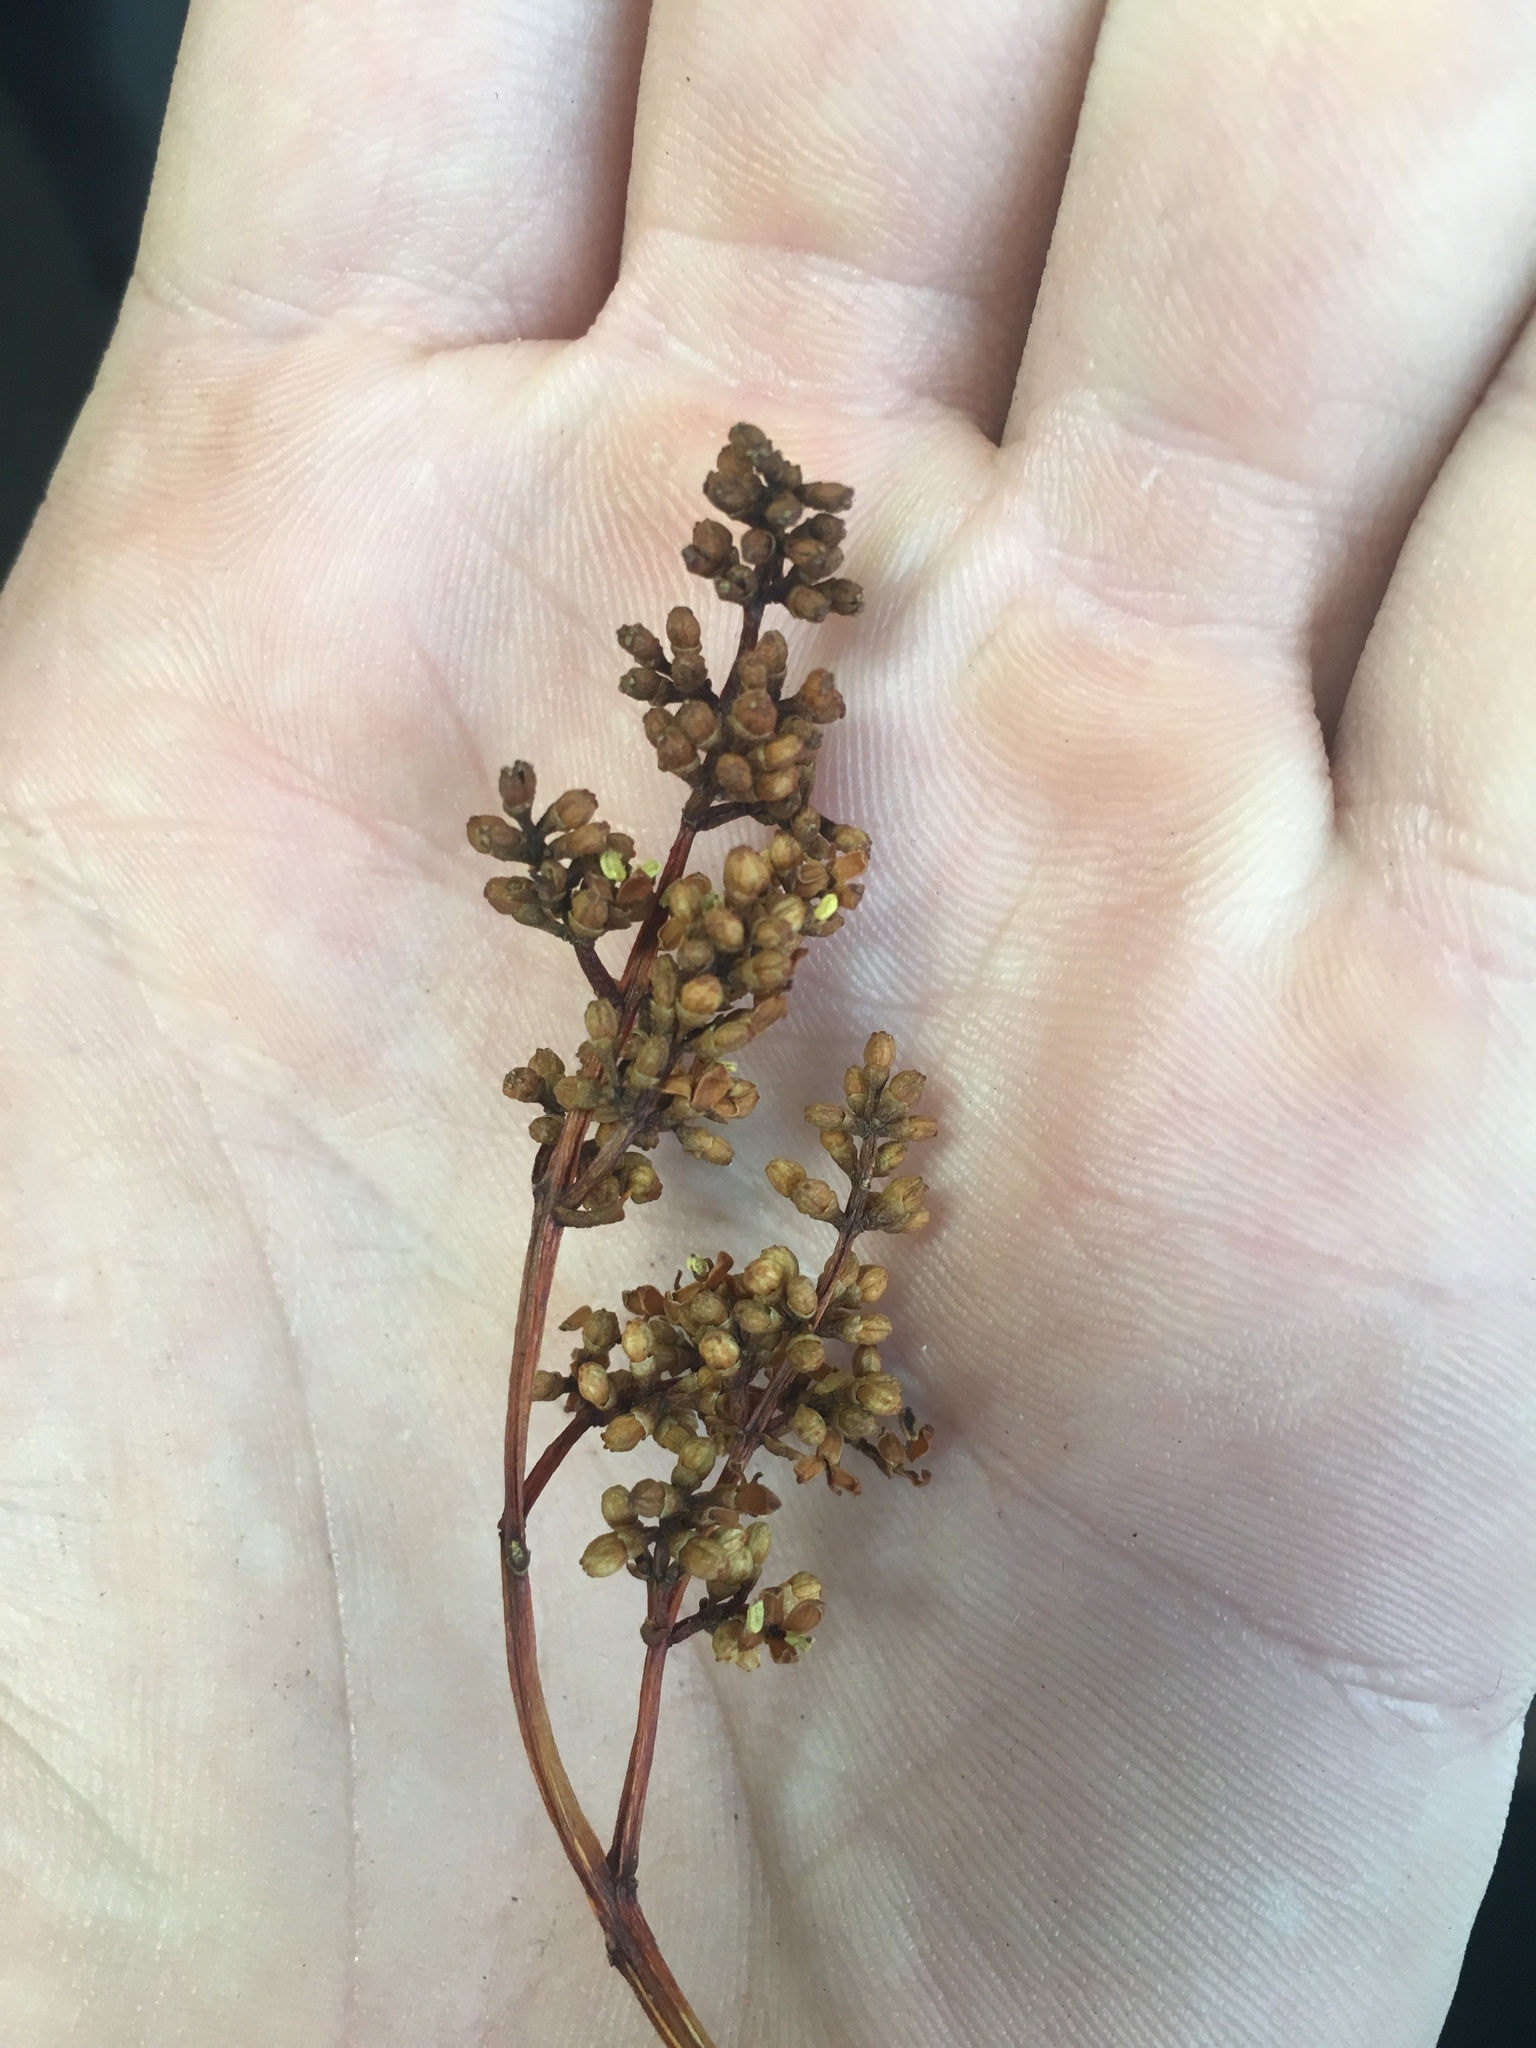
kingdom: Plantae
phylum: Tracheophyta
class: Magnoliopsida
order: Lamiales
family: Oleaceae
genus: Ligustrum
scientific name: Ligustrum lucidum
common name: Glossy privet
